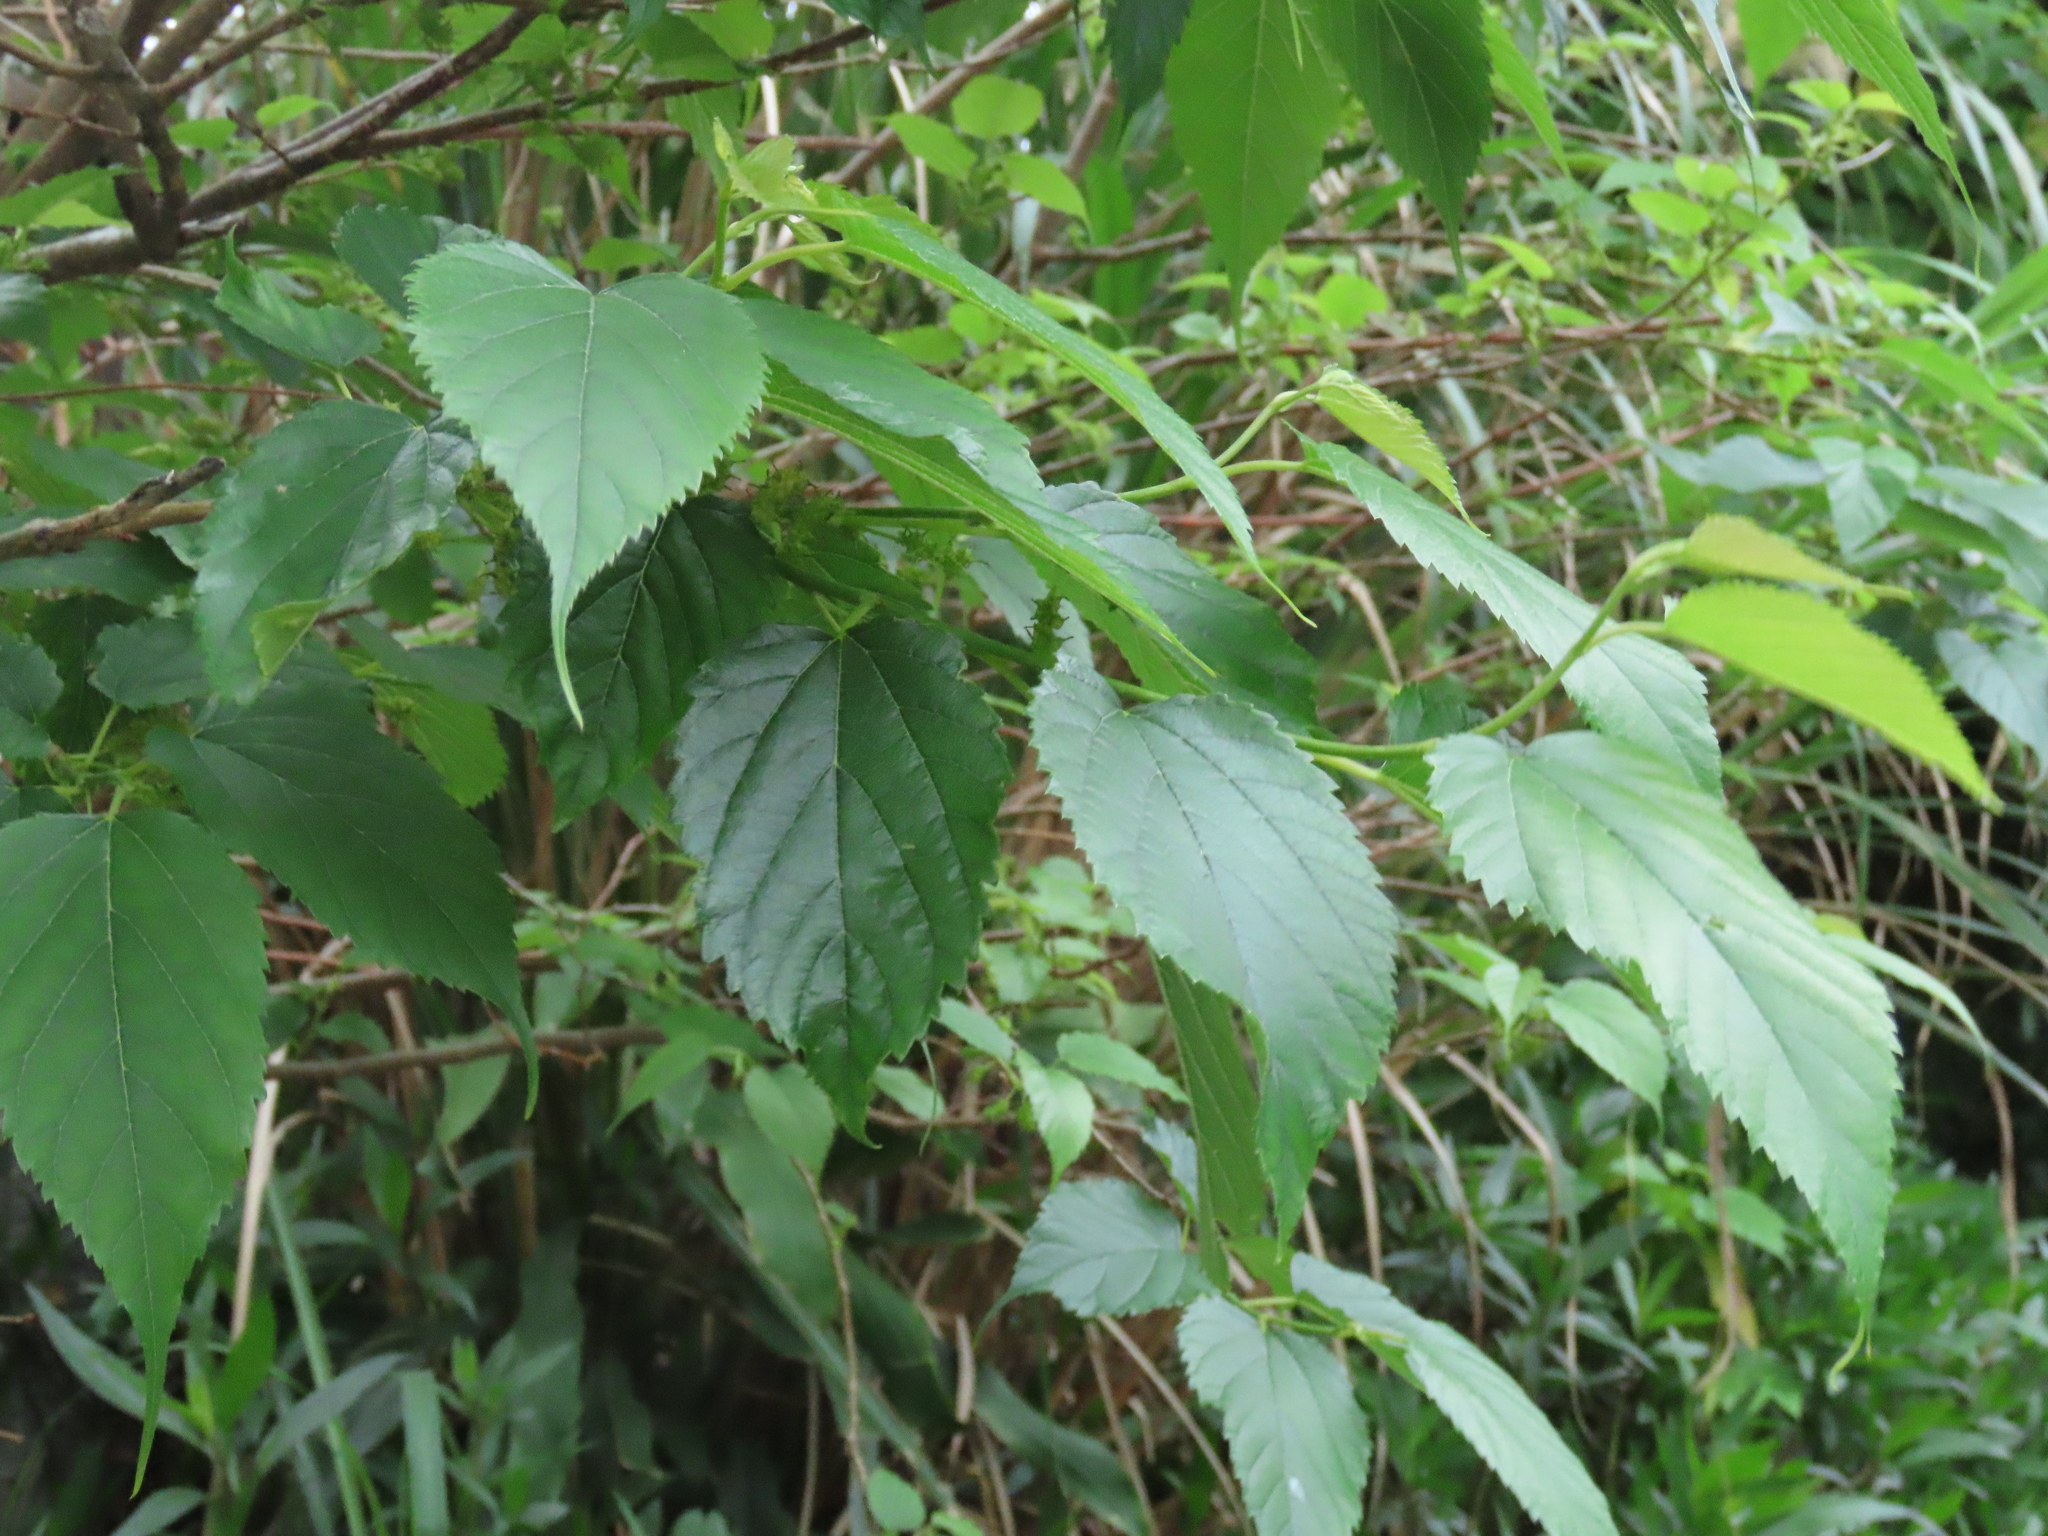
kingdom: Plantae
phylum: Tracheophyta
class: Magnoliopsida
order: Rosales
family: Moraceae
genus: Morus
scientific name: Morus indica
